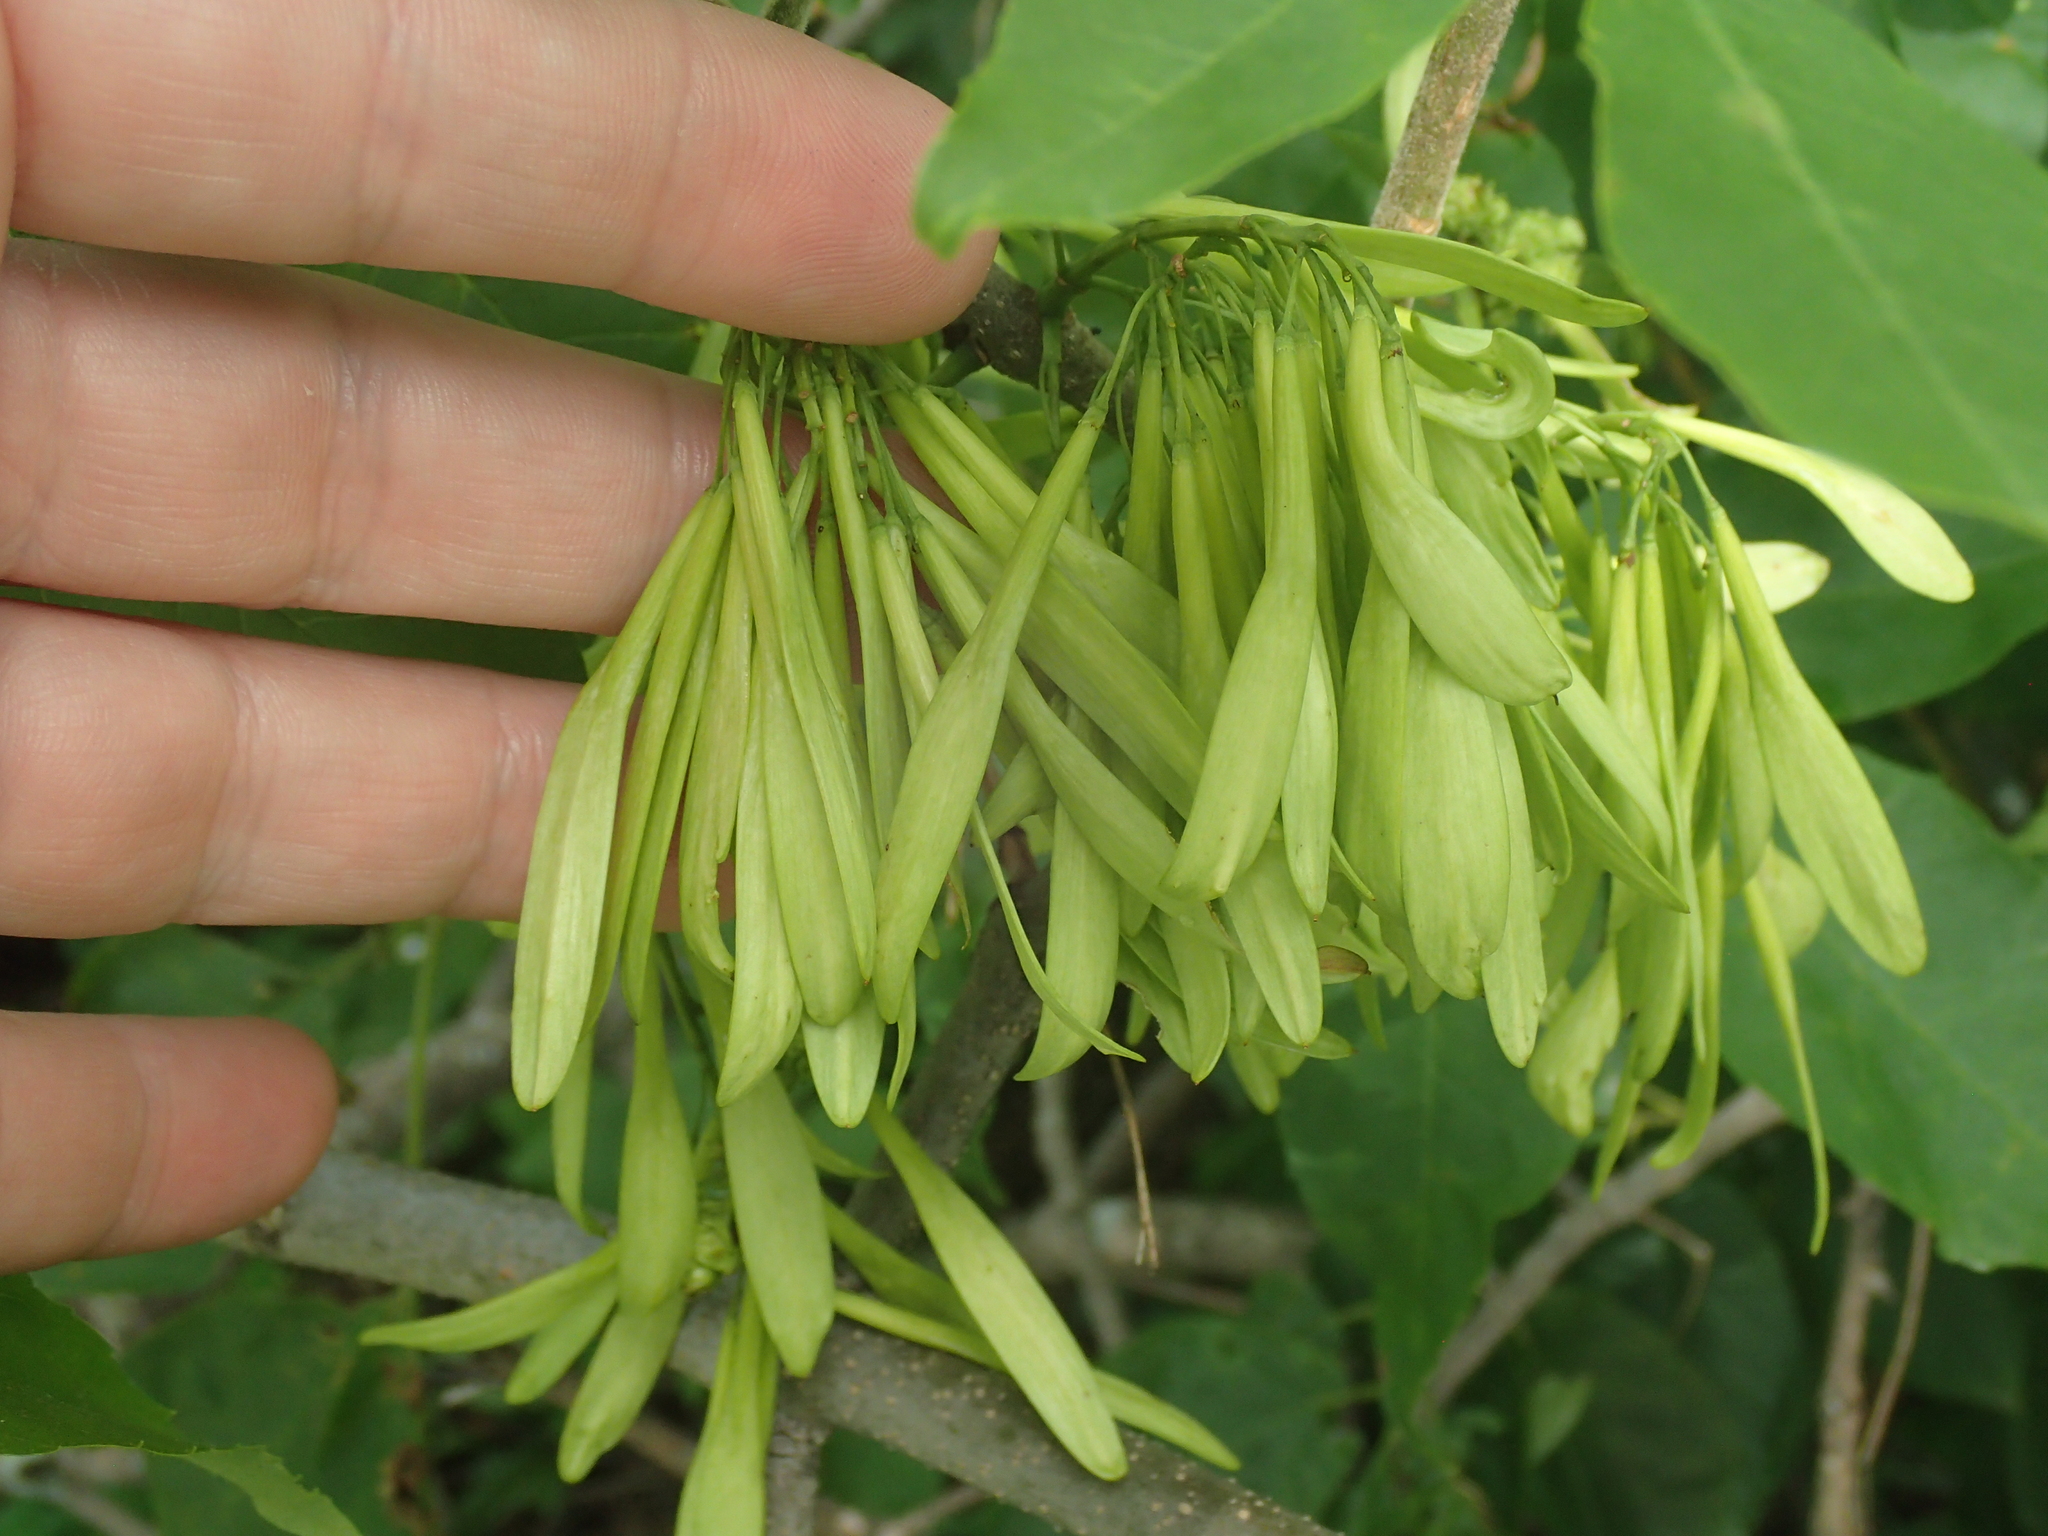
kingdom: Plantae
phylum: Tracheophyta
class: Magnoliopsida
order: Lamiales
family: Oleaceae
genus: Fraxinus
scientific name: Fraxinus pennsylvanica
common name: Green ash
